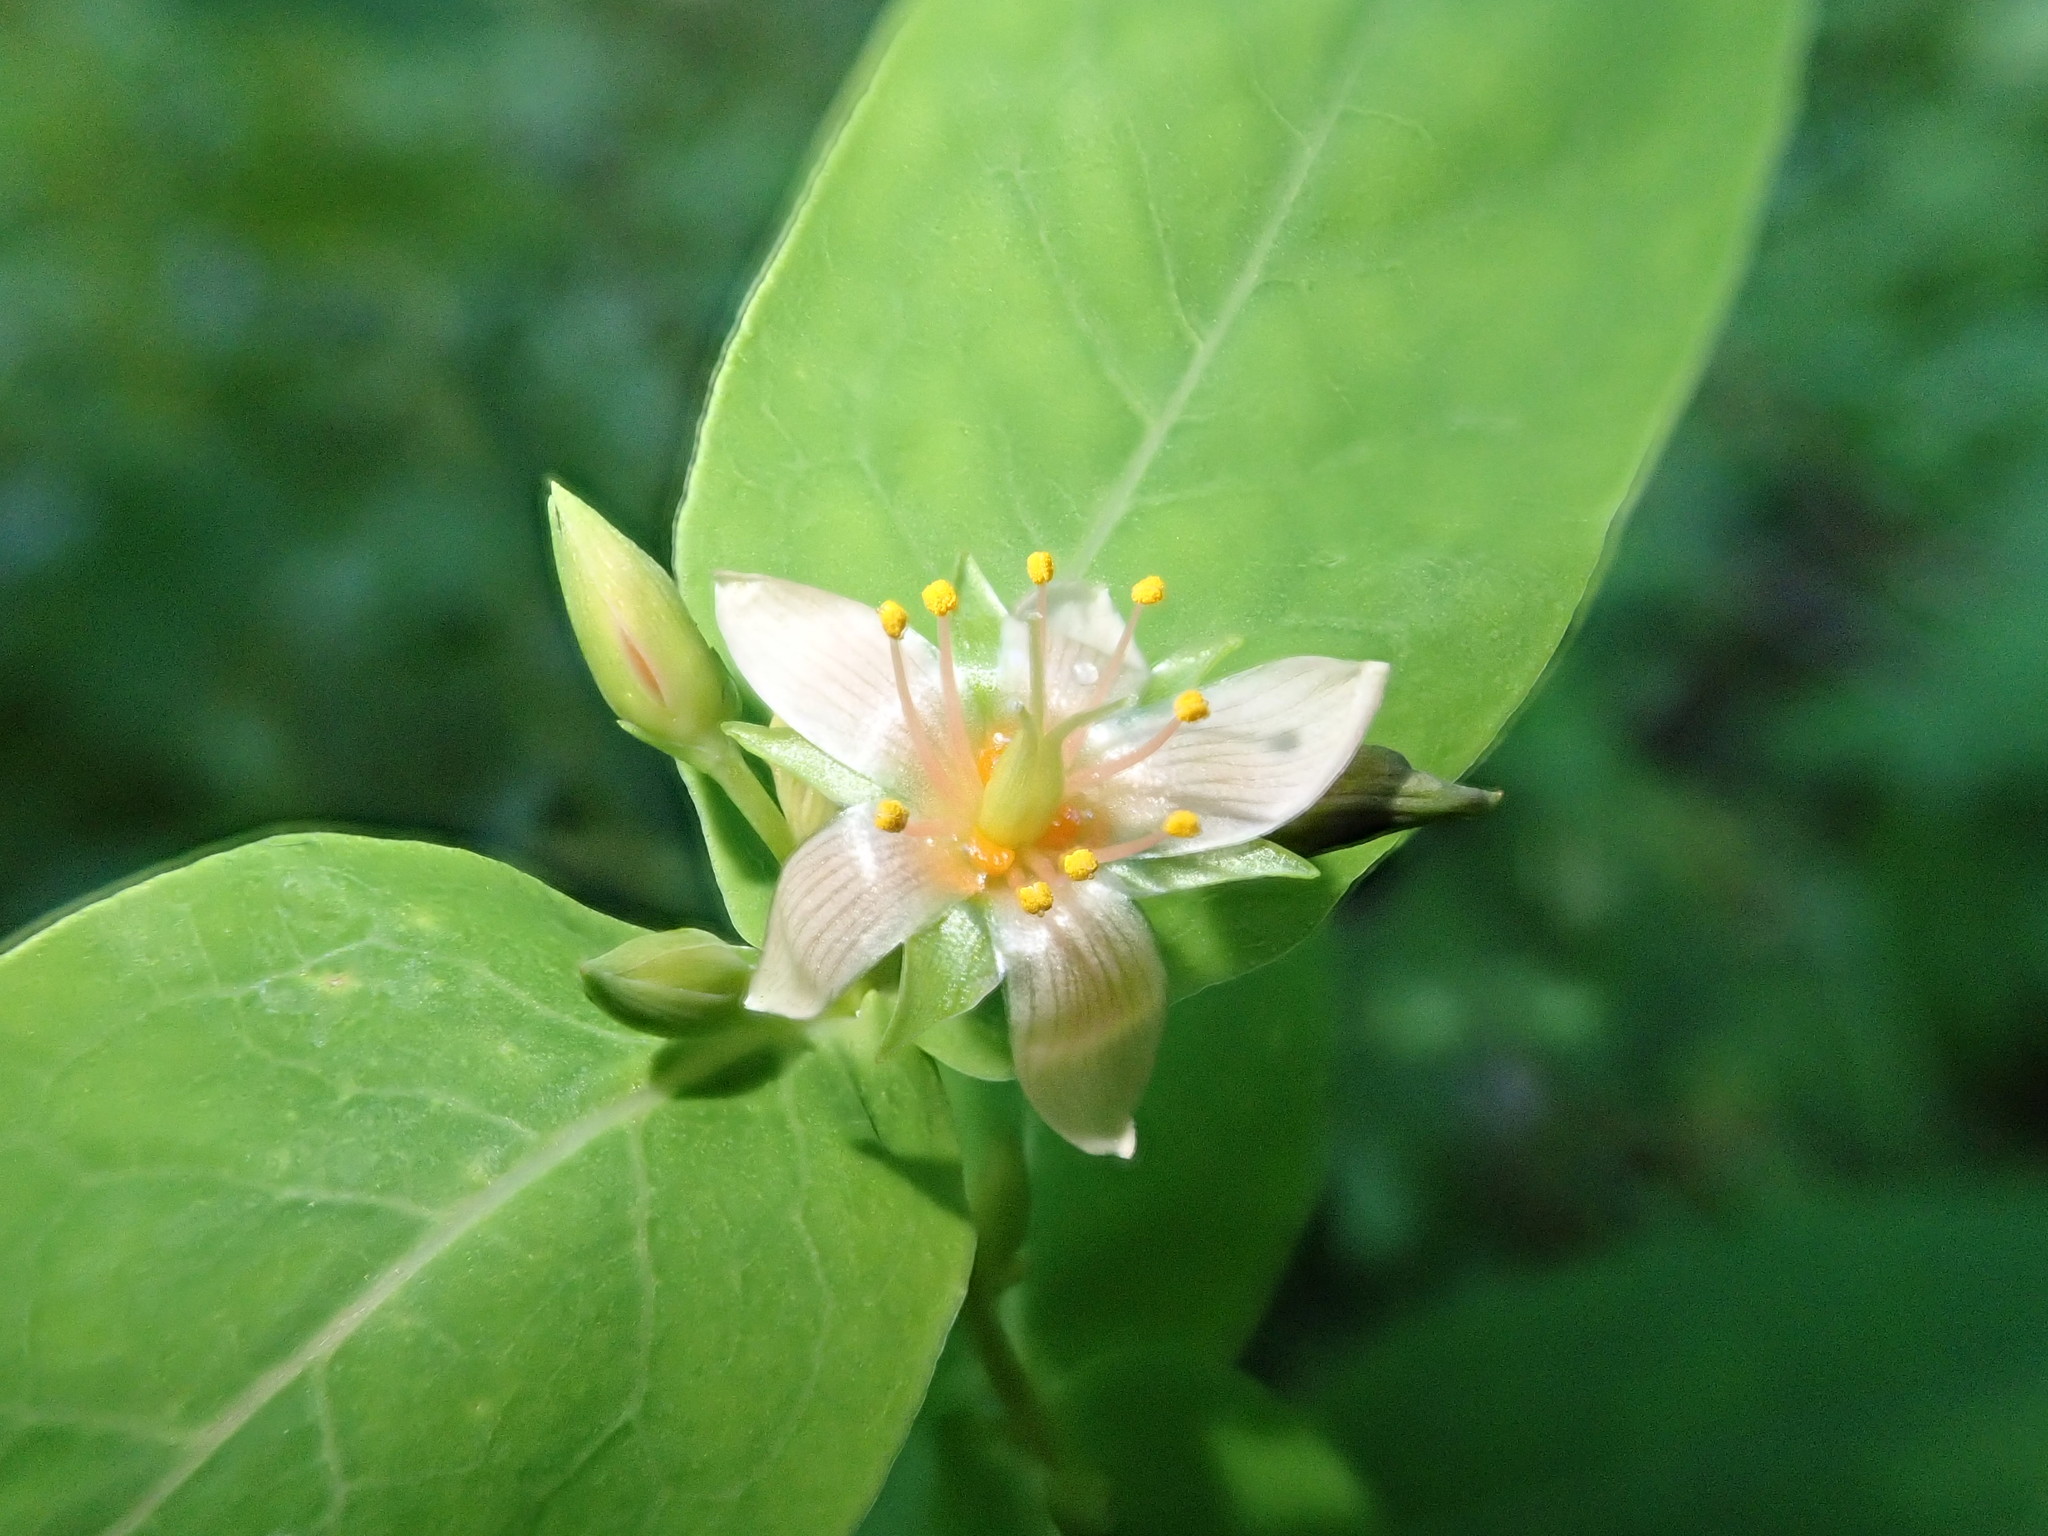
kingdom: Plantae
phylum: Tracheophyta
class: Magnoliopsida
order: Malpighiales
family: Hypericaceae
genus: Triadenum
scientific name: Triadenum virginicum
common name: Marsh st. john's-wort
